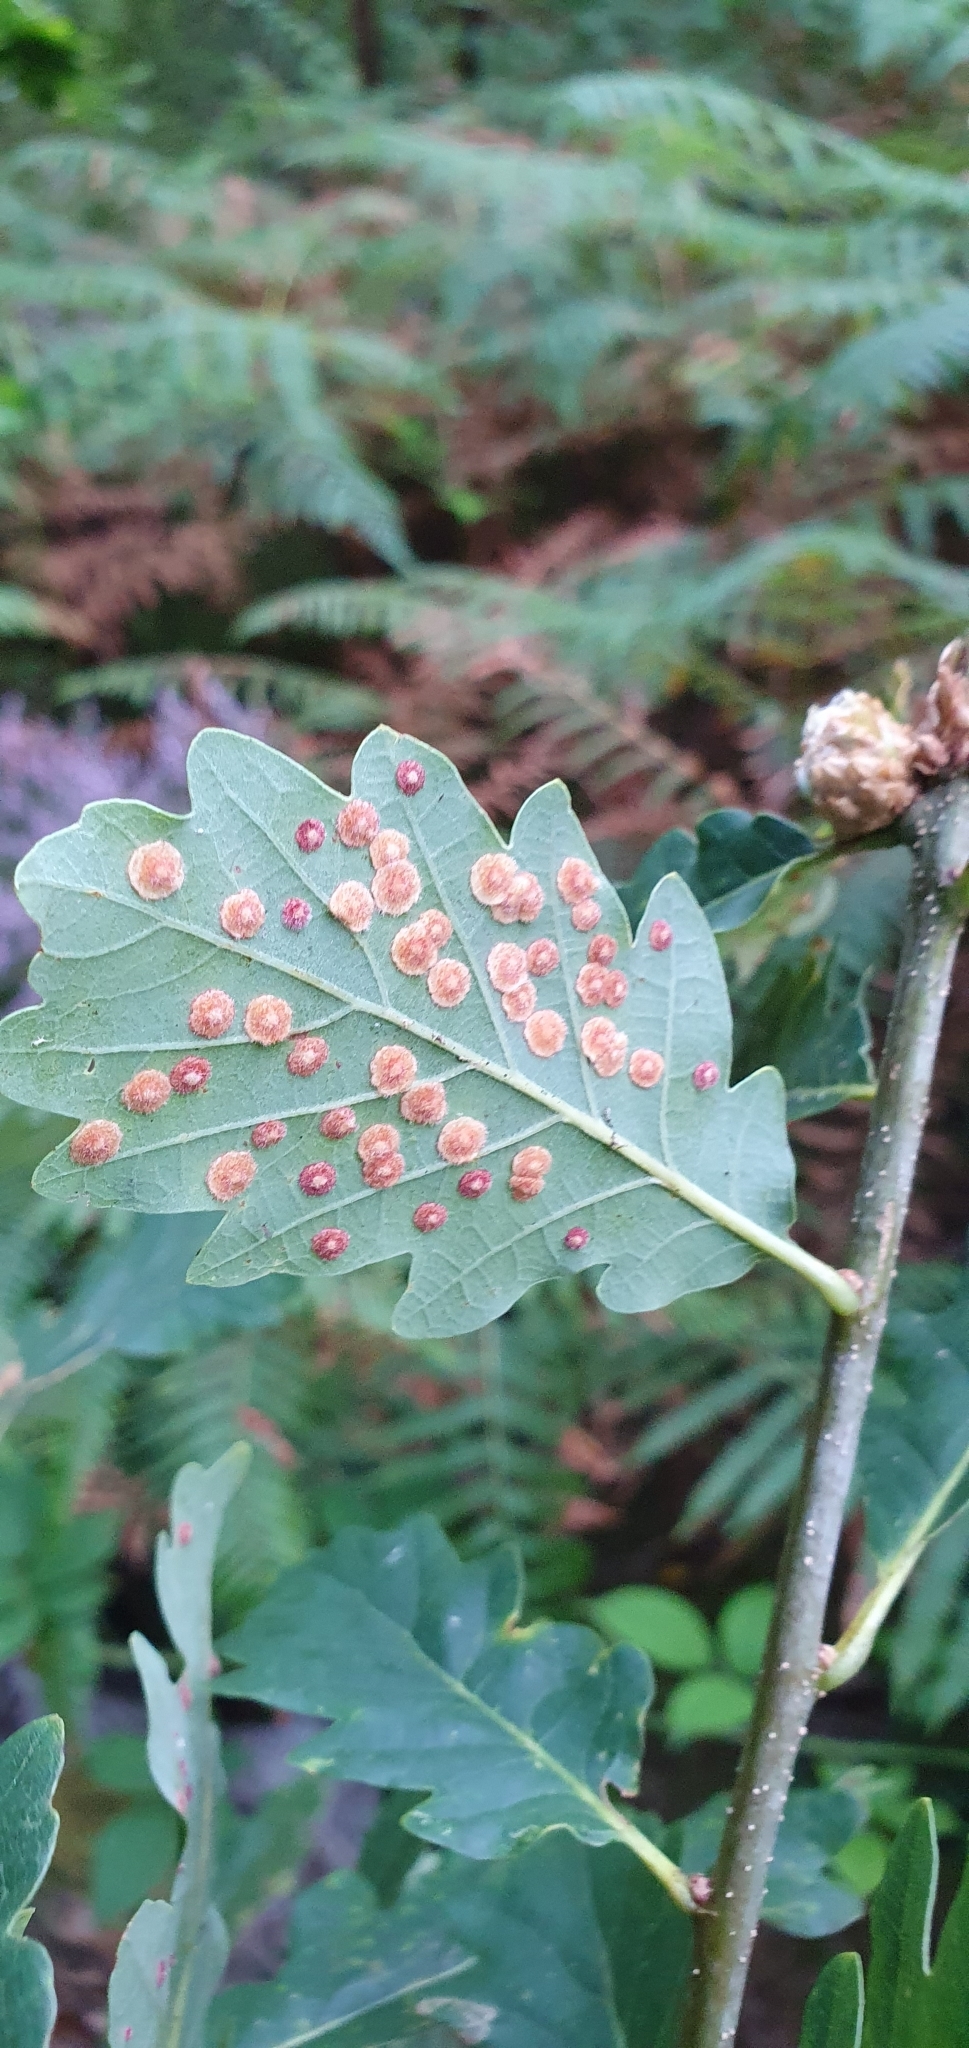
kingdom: Animalia
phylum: Arthropoda
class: Insecta
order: Hymenoptera
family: Cynipidae
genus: Neuroterus
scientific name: Neuroterus quercusbaccarum
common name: Common spangle gall
